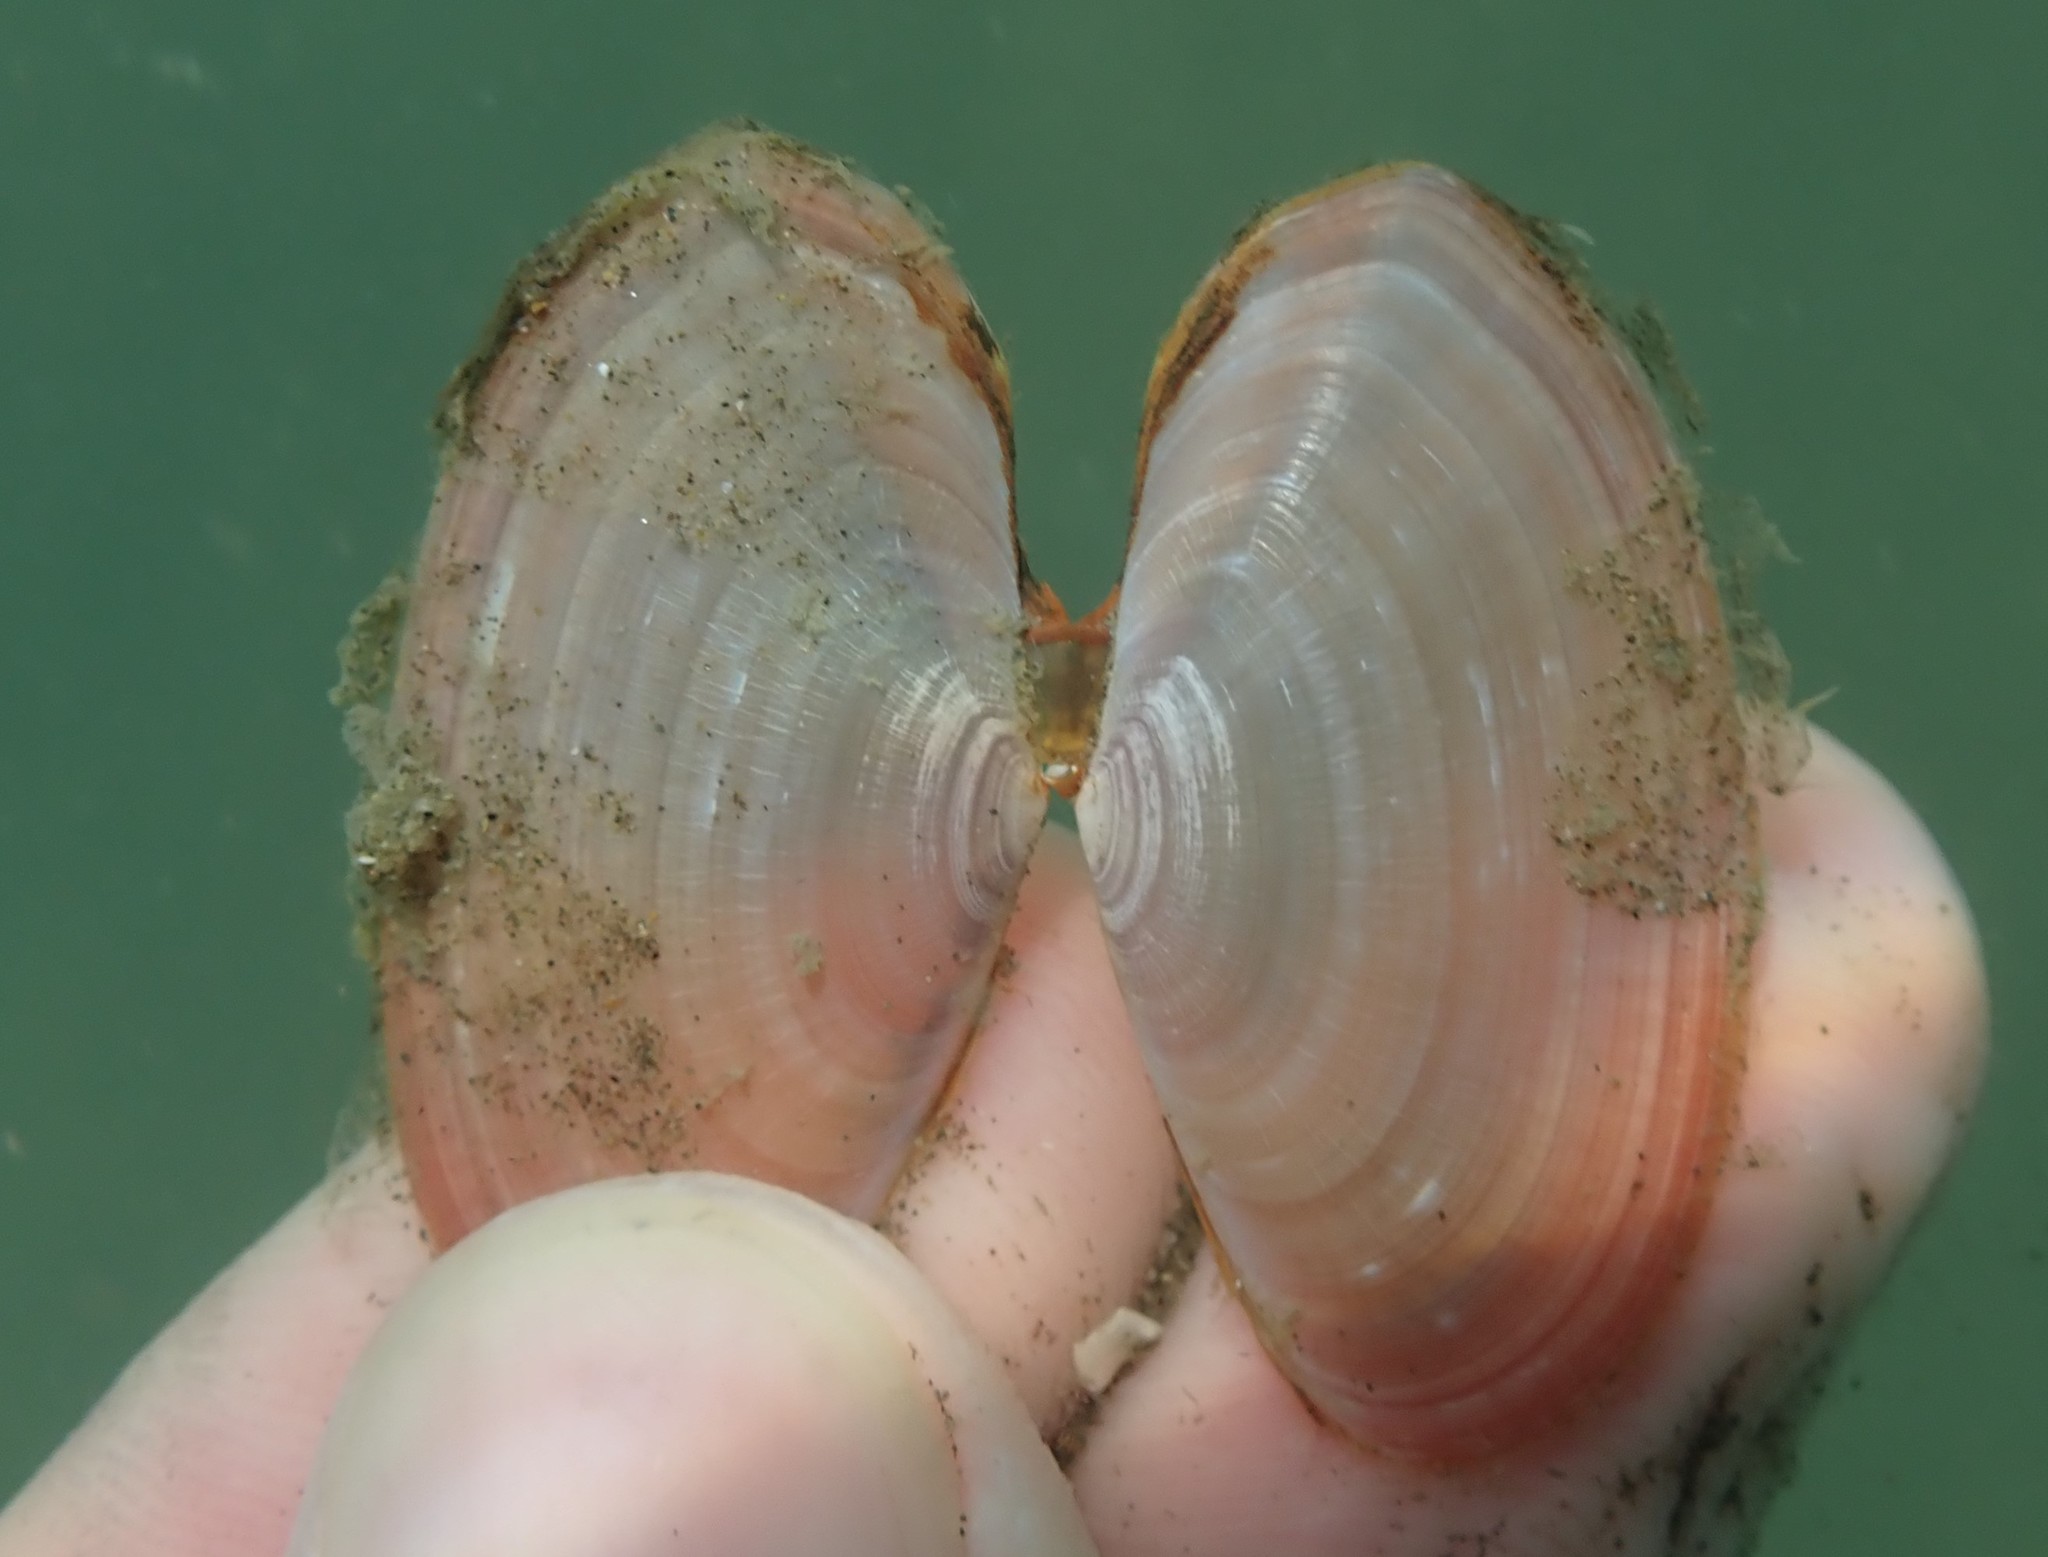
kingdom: Animalia
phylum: Mollusca
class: Bivalvia
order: Cardiida
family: Psammobiidae
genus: Gari
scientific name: Gari lineolata
